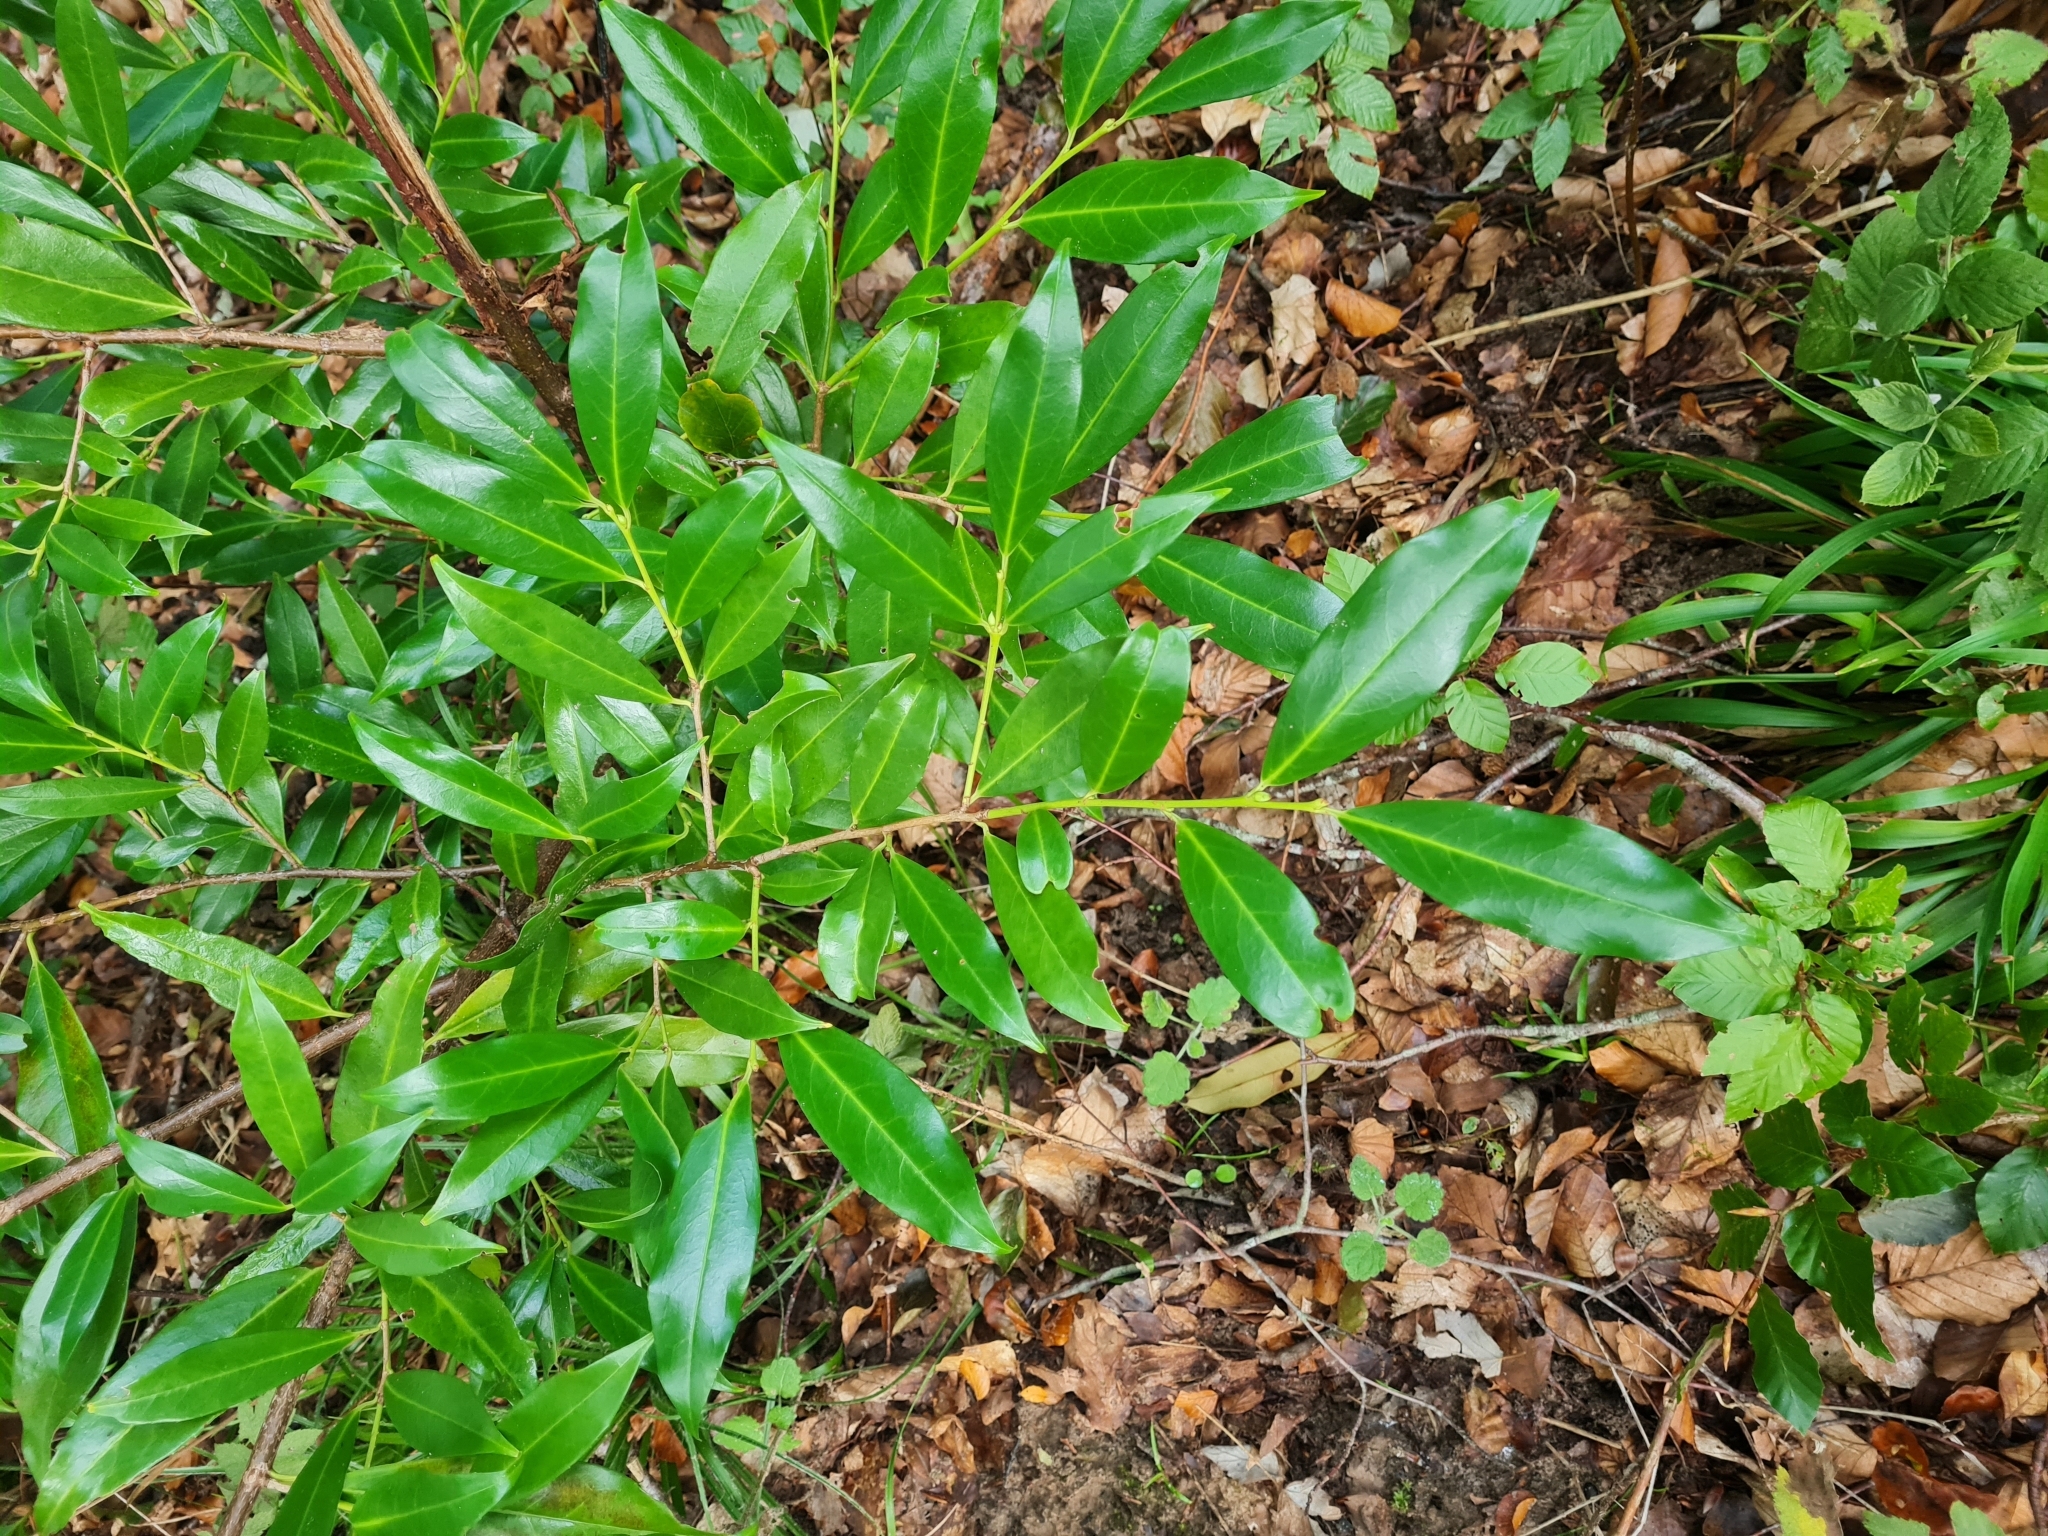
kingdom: Plantae
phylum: Tracheophyta
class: Magnoliopsida
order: Rosales
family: Rosaceae
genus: Prunus
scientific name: Prunus laurocerasus
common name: Cherry laurel
